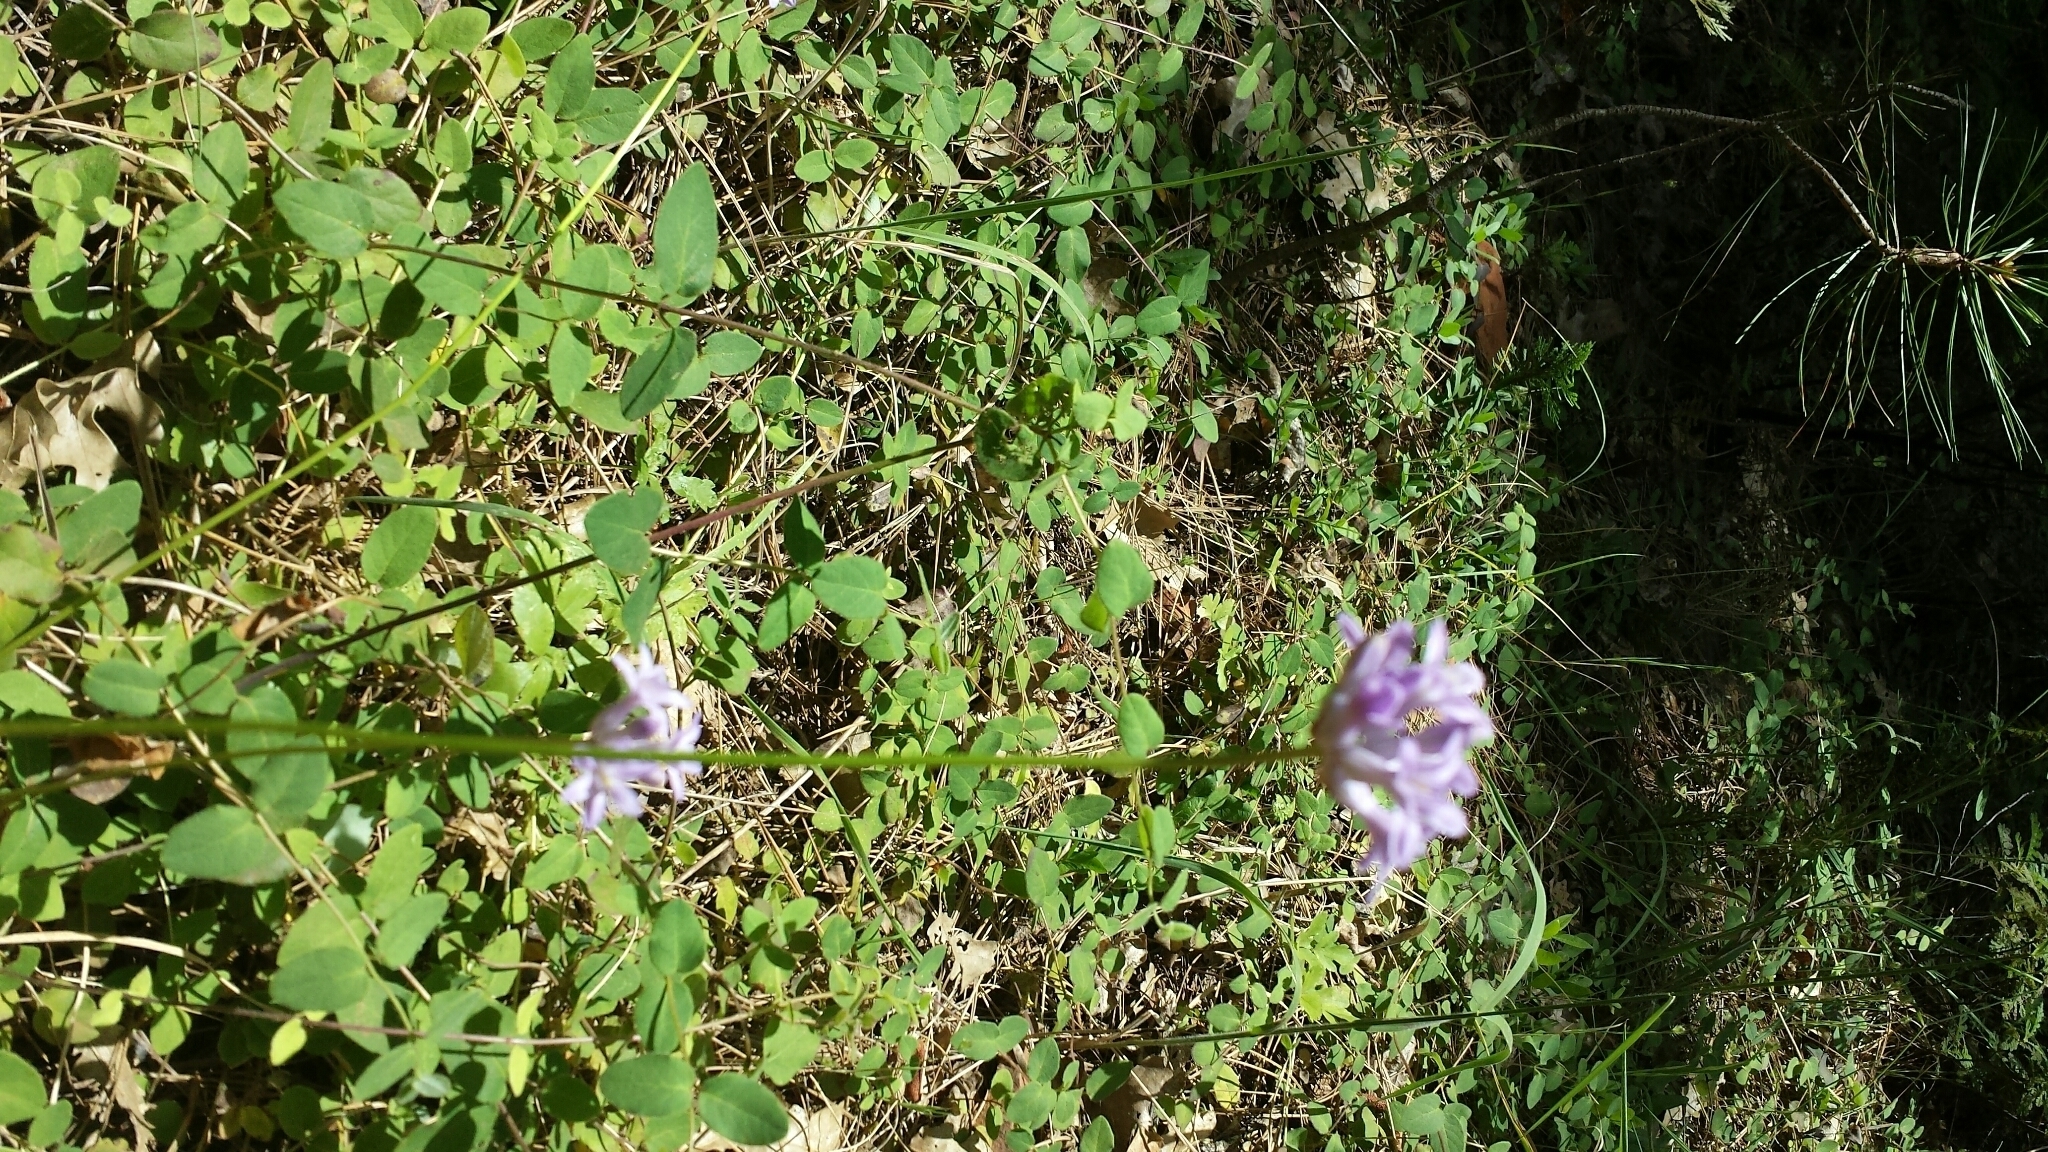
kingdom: Plantae
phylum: Tracheophyta
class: Liliopsida
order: Asparagales
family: Asparagaceae
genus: Dichelostemma
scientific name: Dichelostemma multiflorum
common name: Round-tooth ookow
